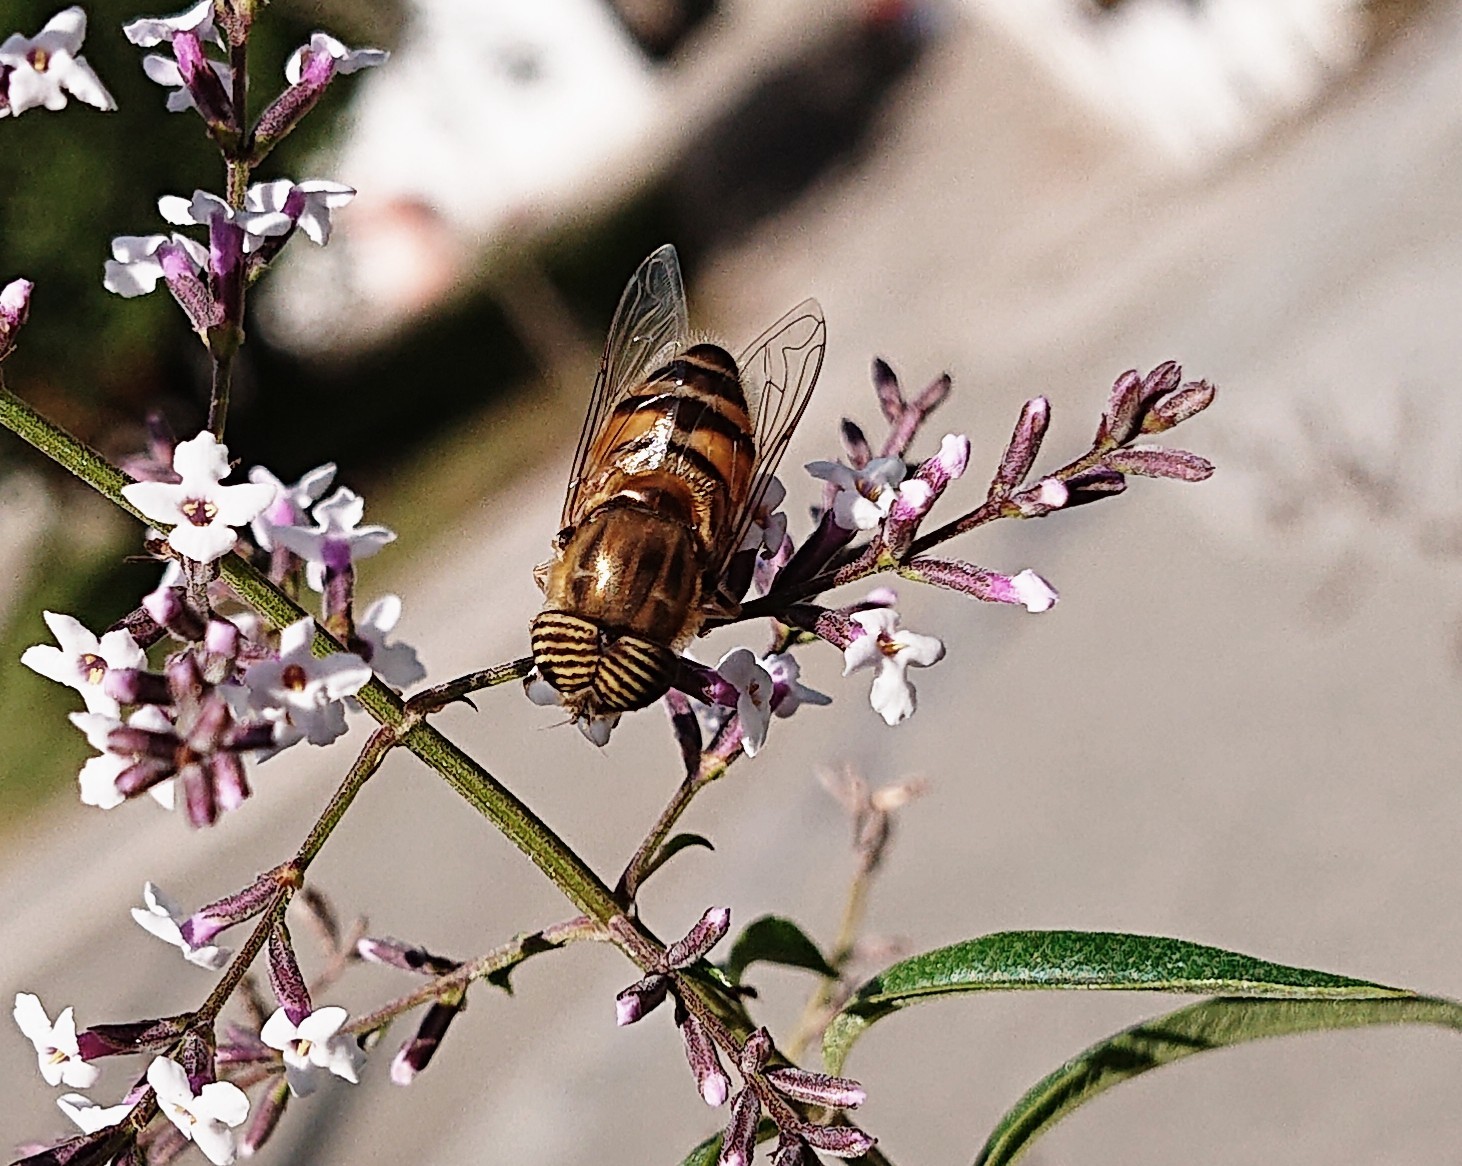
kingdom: Animalia
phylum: Arthropoda
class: Insecta
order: Diptera
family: Syrphidae
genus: Eristalinus
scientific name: Eristalinus taeniops
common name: Syrphid fly
